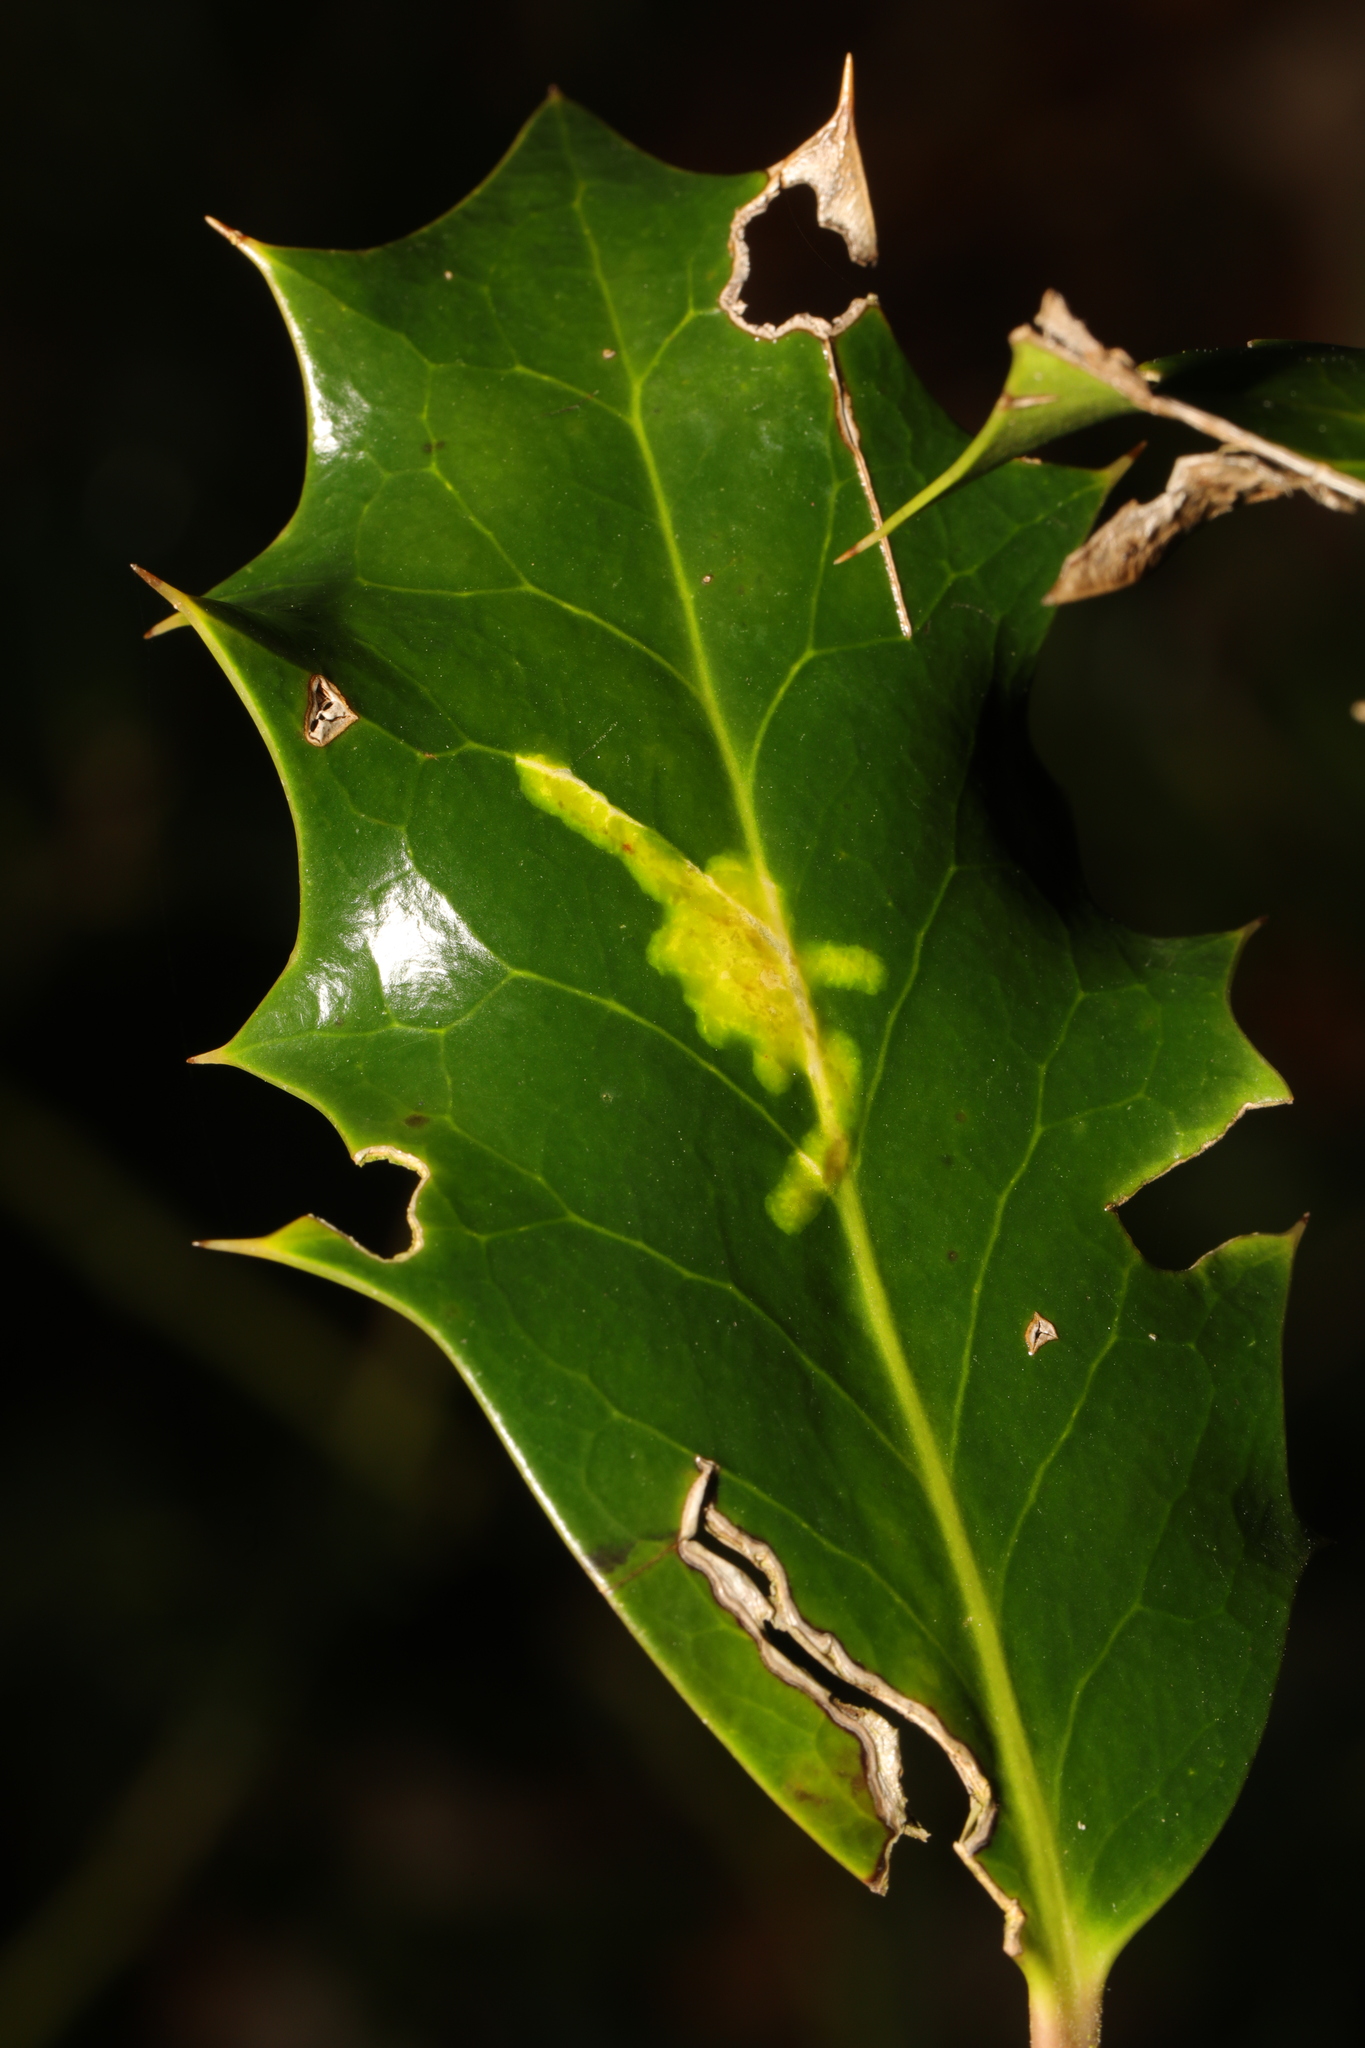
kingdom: Animalia
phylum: Arthropoda
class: Insecta
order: Diptera
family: Agromyzidae
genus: Phytomyza
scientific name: Phytomyza ilicis
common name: Holly leafminer
